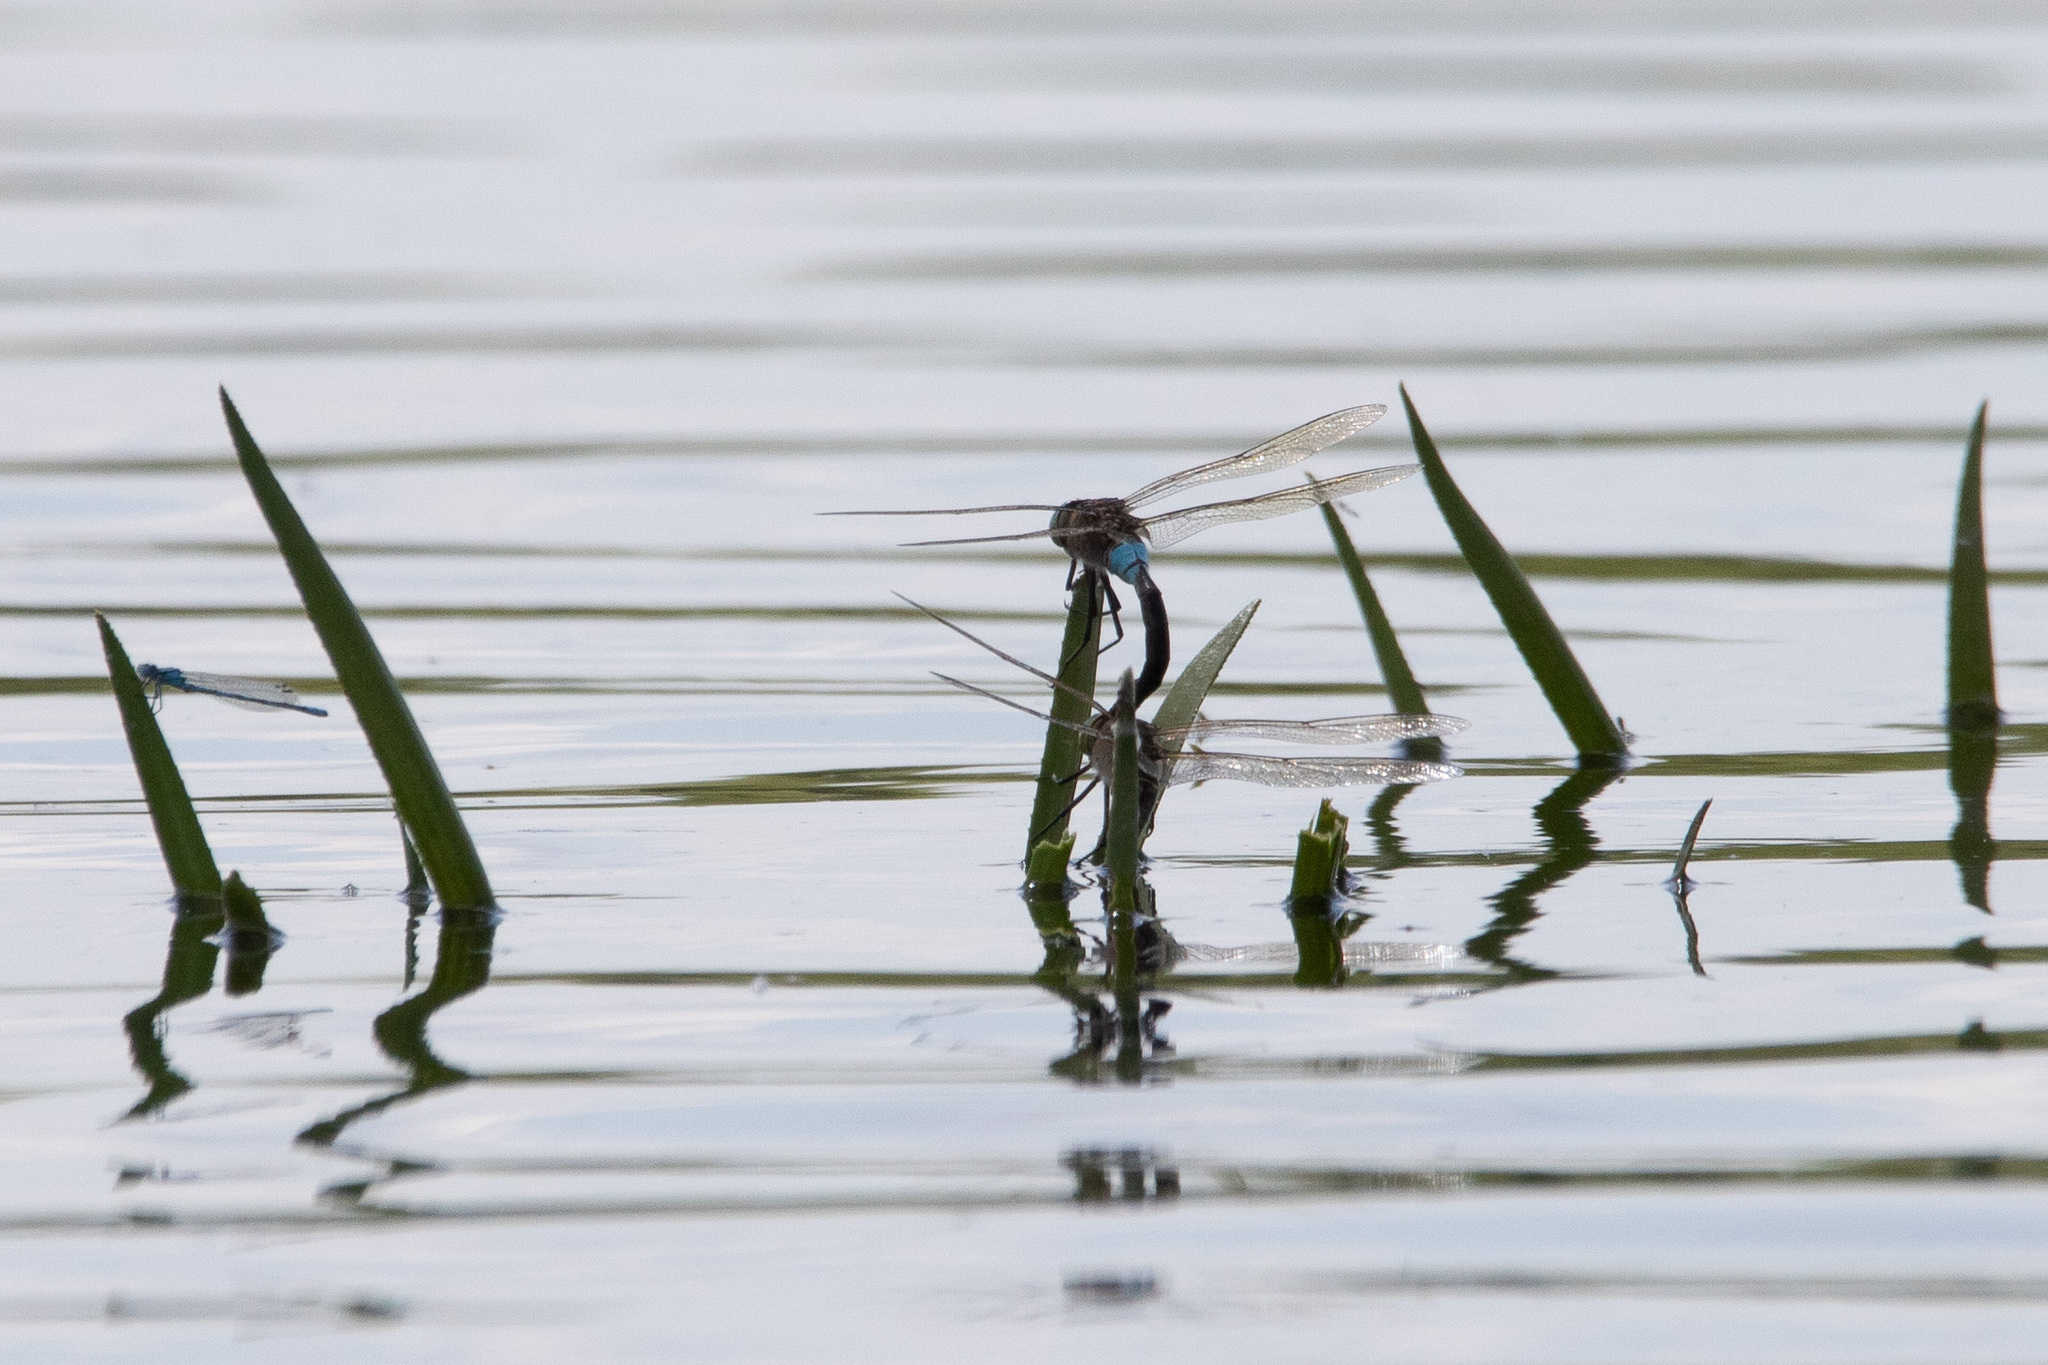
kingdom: Animalia
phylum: Arthropoda
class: Insecta
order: Odonata
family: Aeshnidae
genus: Anax
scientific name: Anax parthenope
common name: Lesser emperor
